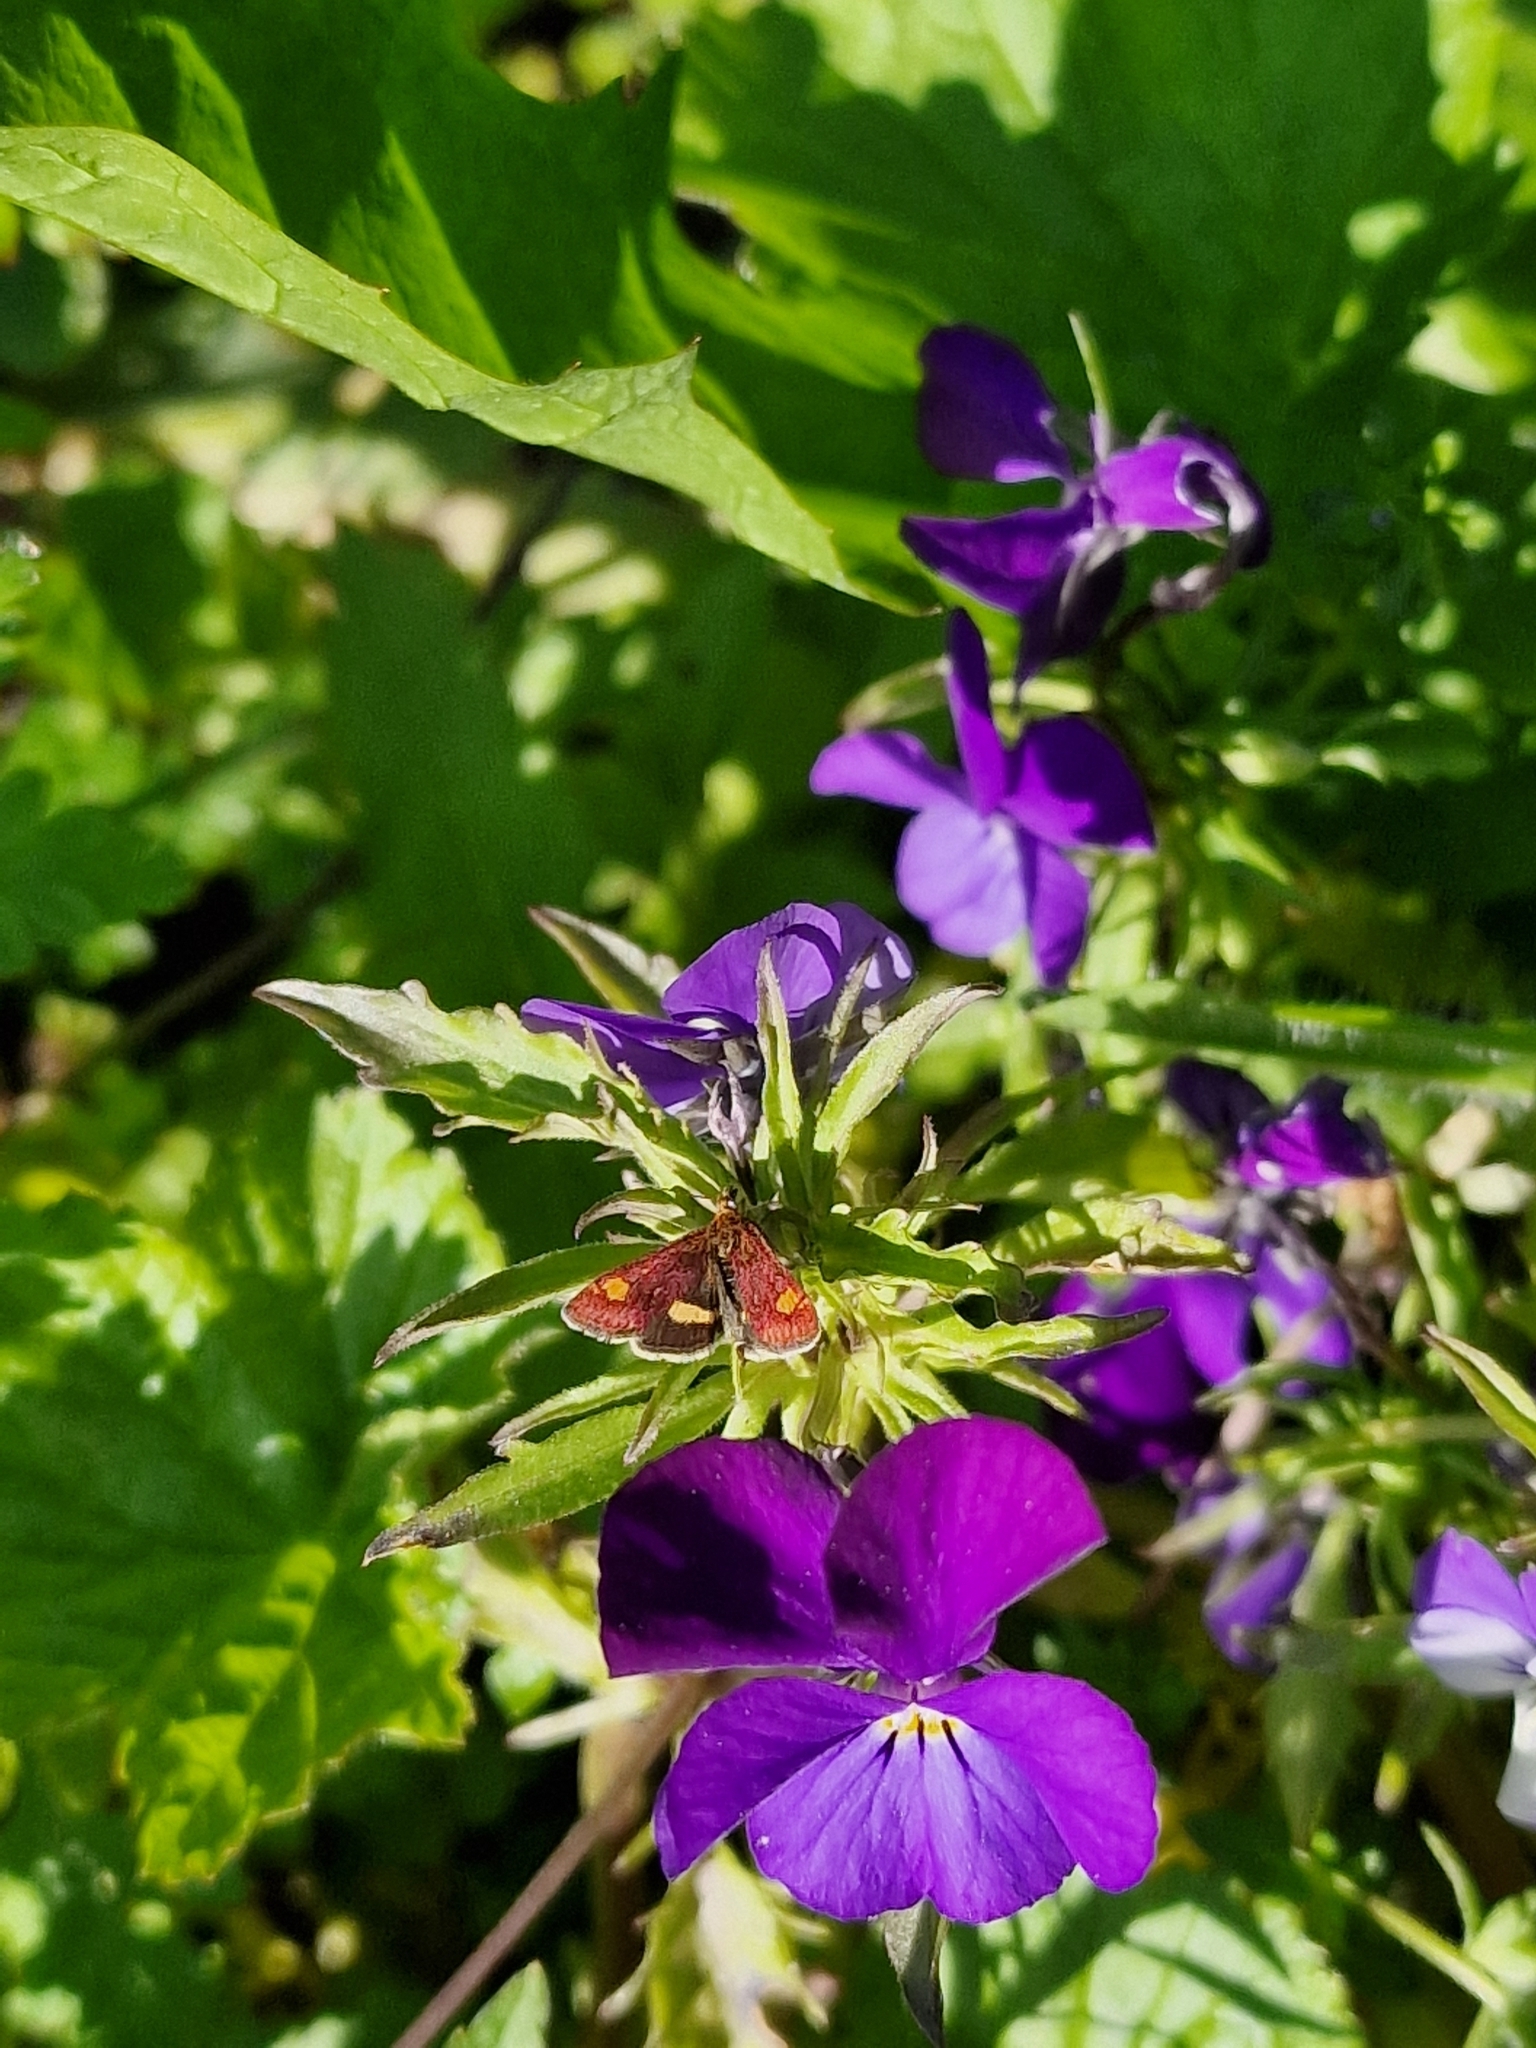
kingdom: Animalia
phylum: Arthropoda
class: Insecta
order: Lepidoptera
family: Crambidae
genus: Pyrausta
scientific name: Pyrausta aurata
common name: Small purple & gold
